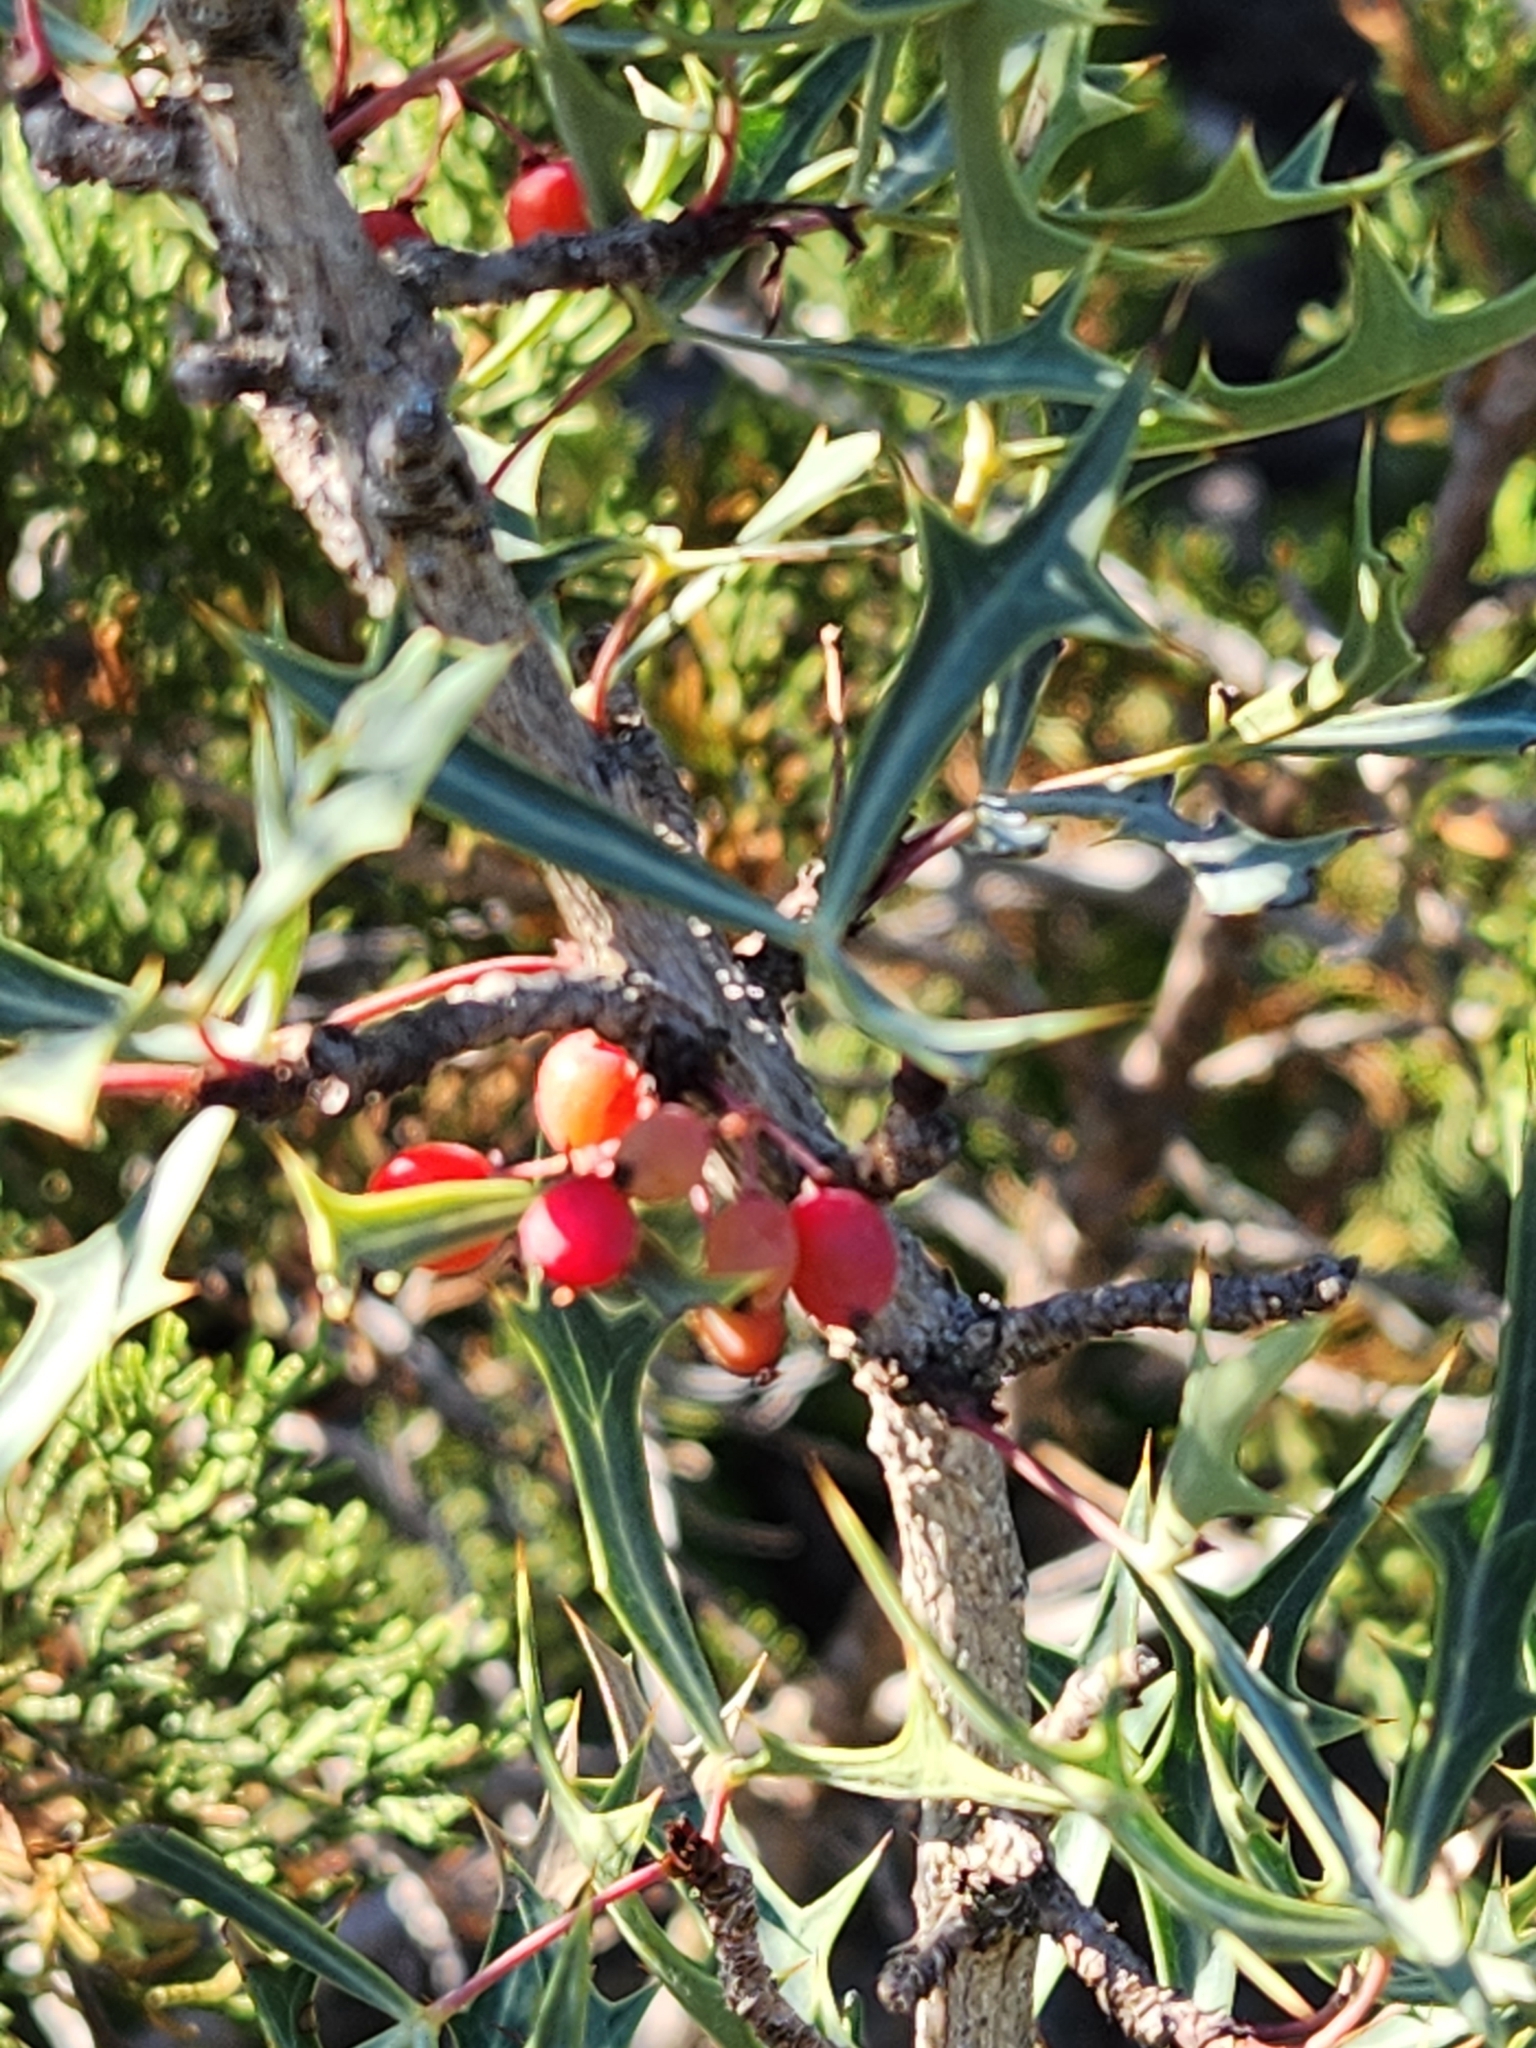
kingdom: Plantae
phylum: Tracheophyta
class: Magnoliopsida
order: Ranunculales
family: Berberidaceae
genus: Alloberberis
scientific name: Alloberberis trifoliolata
